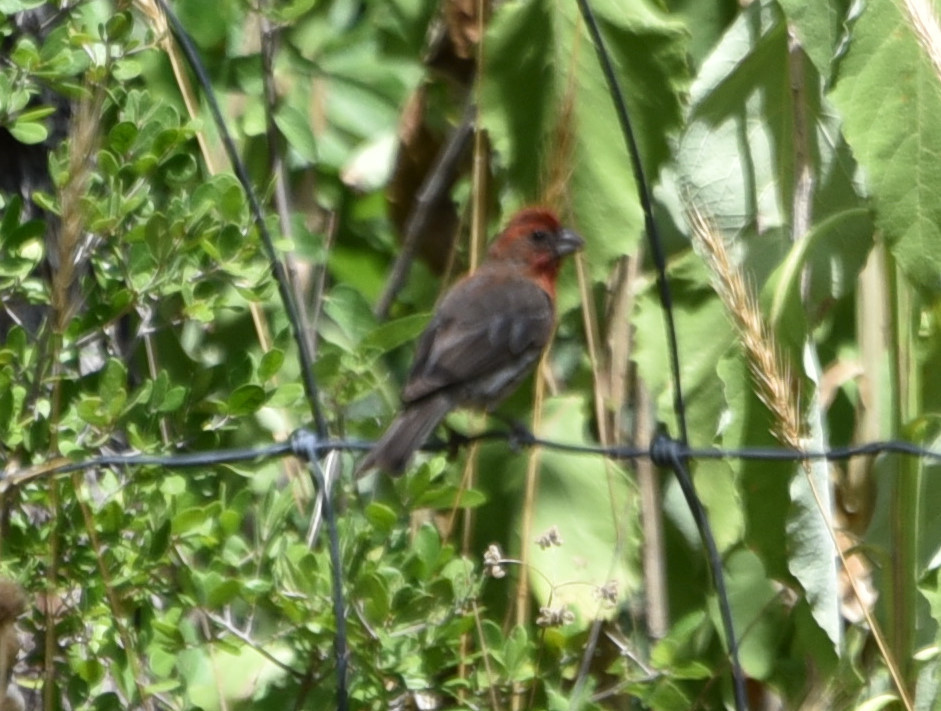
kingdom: Animalia
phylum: Chordata
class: Aves
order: Passeriformes
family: Fringillidae
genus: Haemorhous
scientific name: Haemorhous mexicanus
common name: House finch
